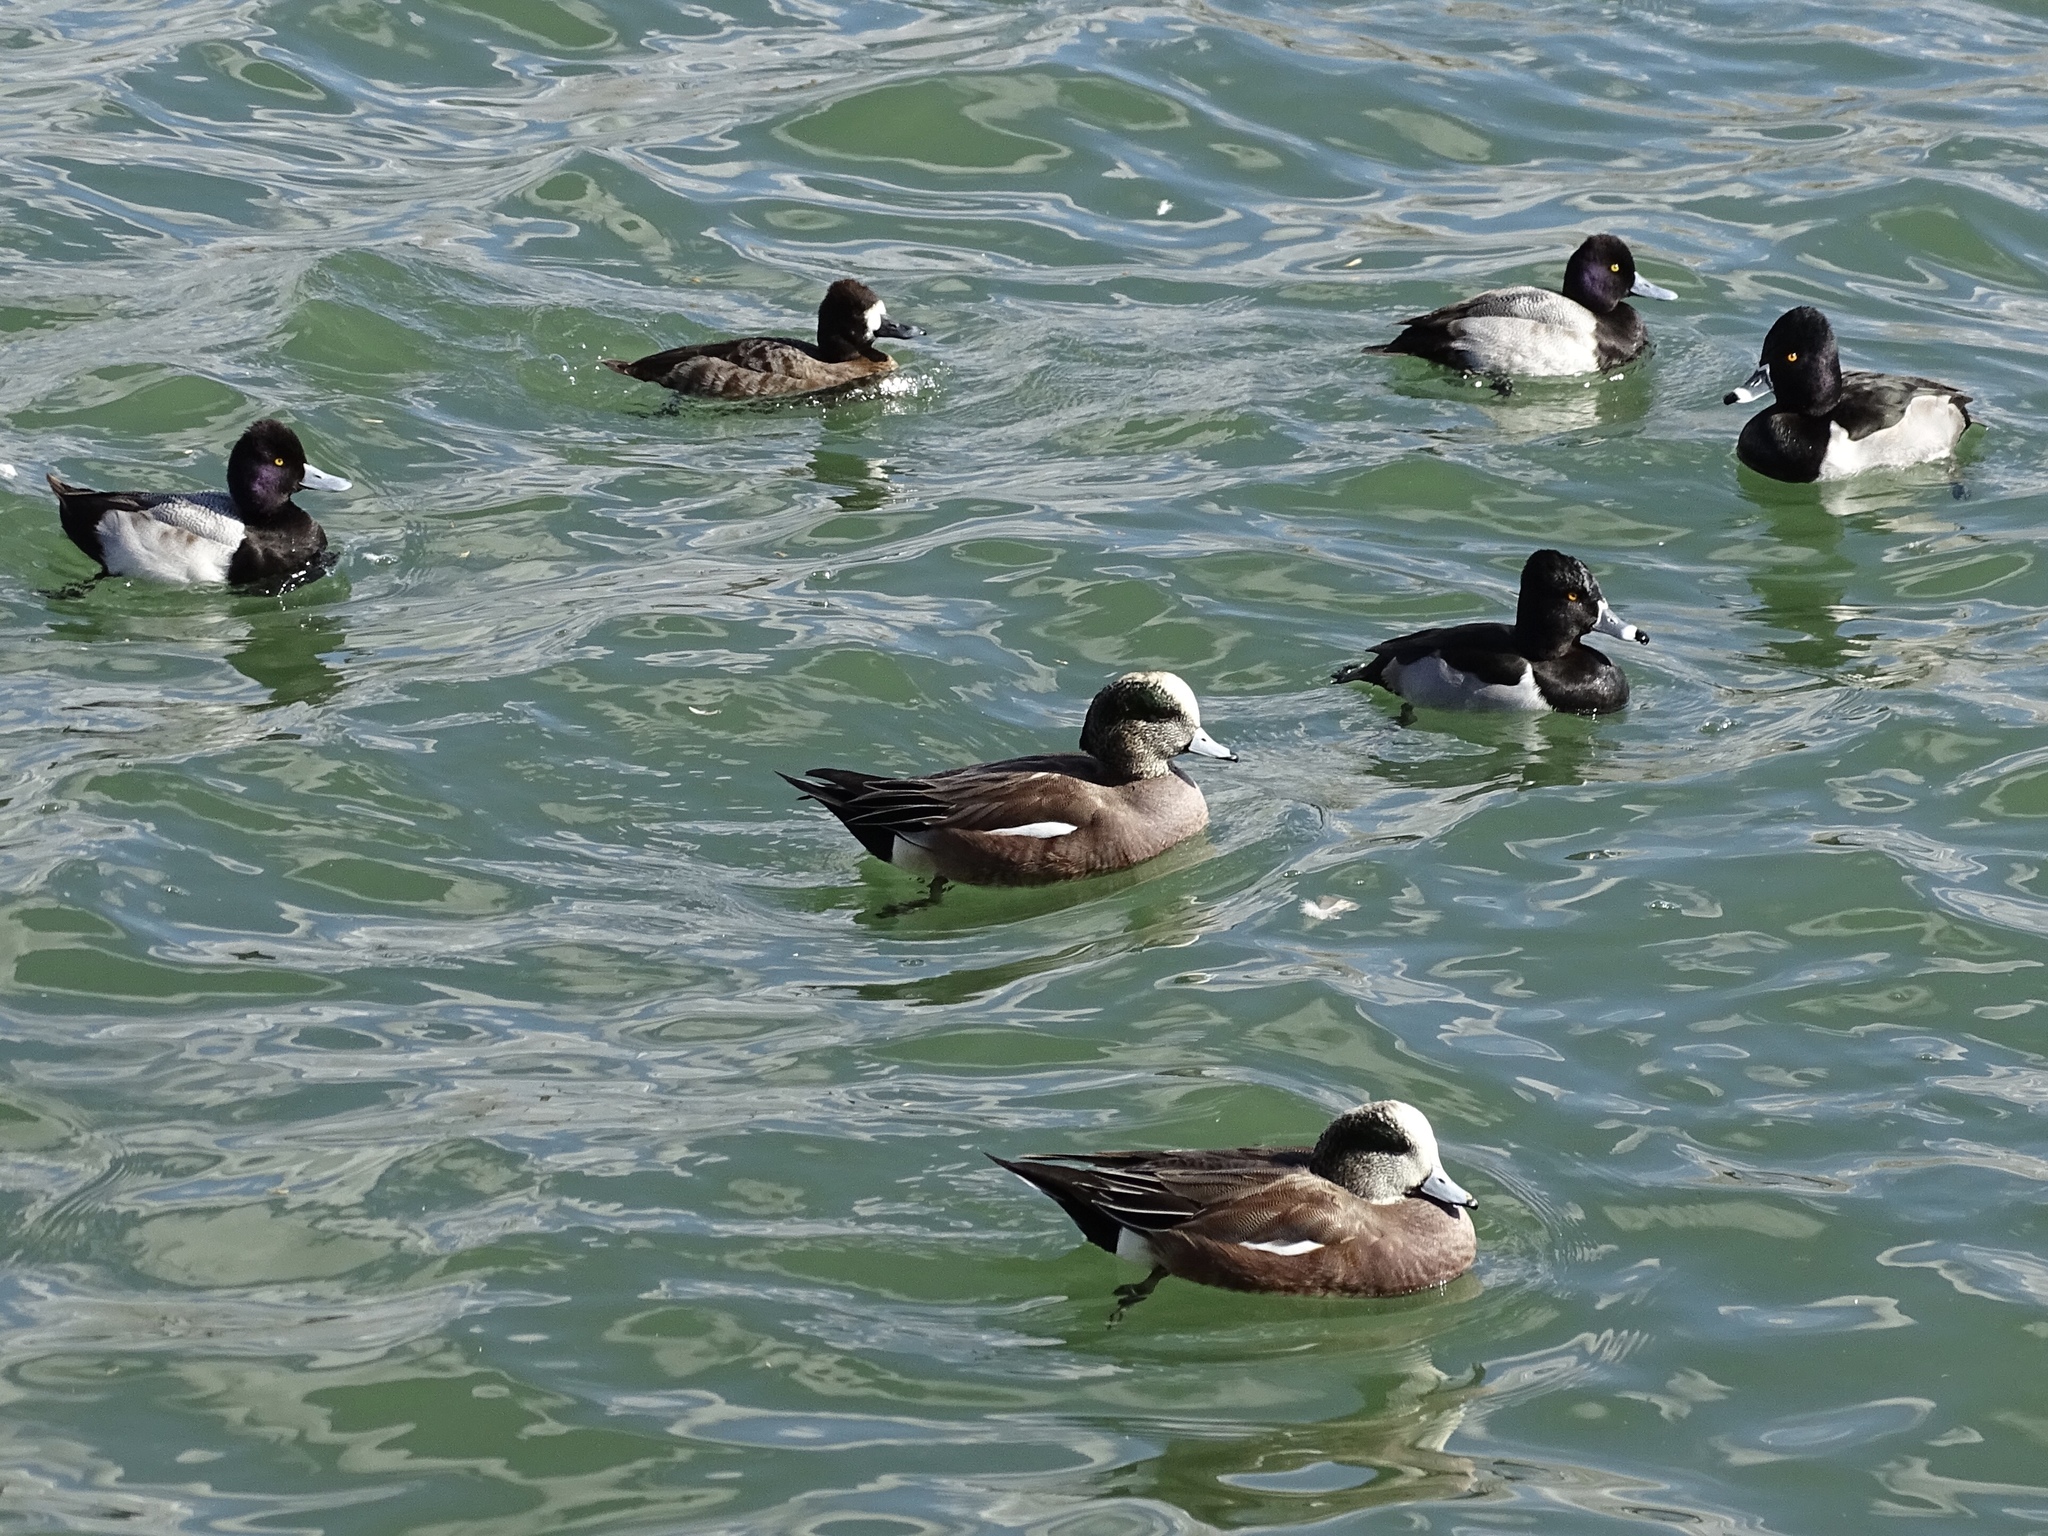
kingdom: Animalia
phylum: Chordata
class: Aves
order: Anseriformes
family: Anatidae
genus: Mareca
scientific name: Mareca americana
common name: American wigeon
